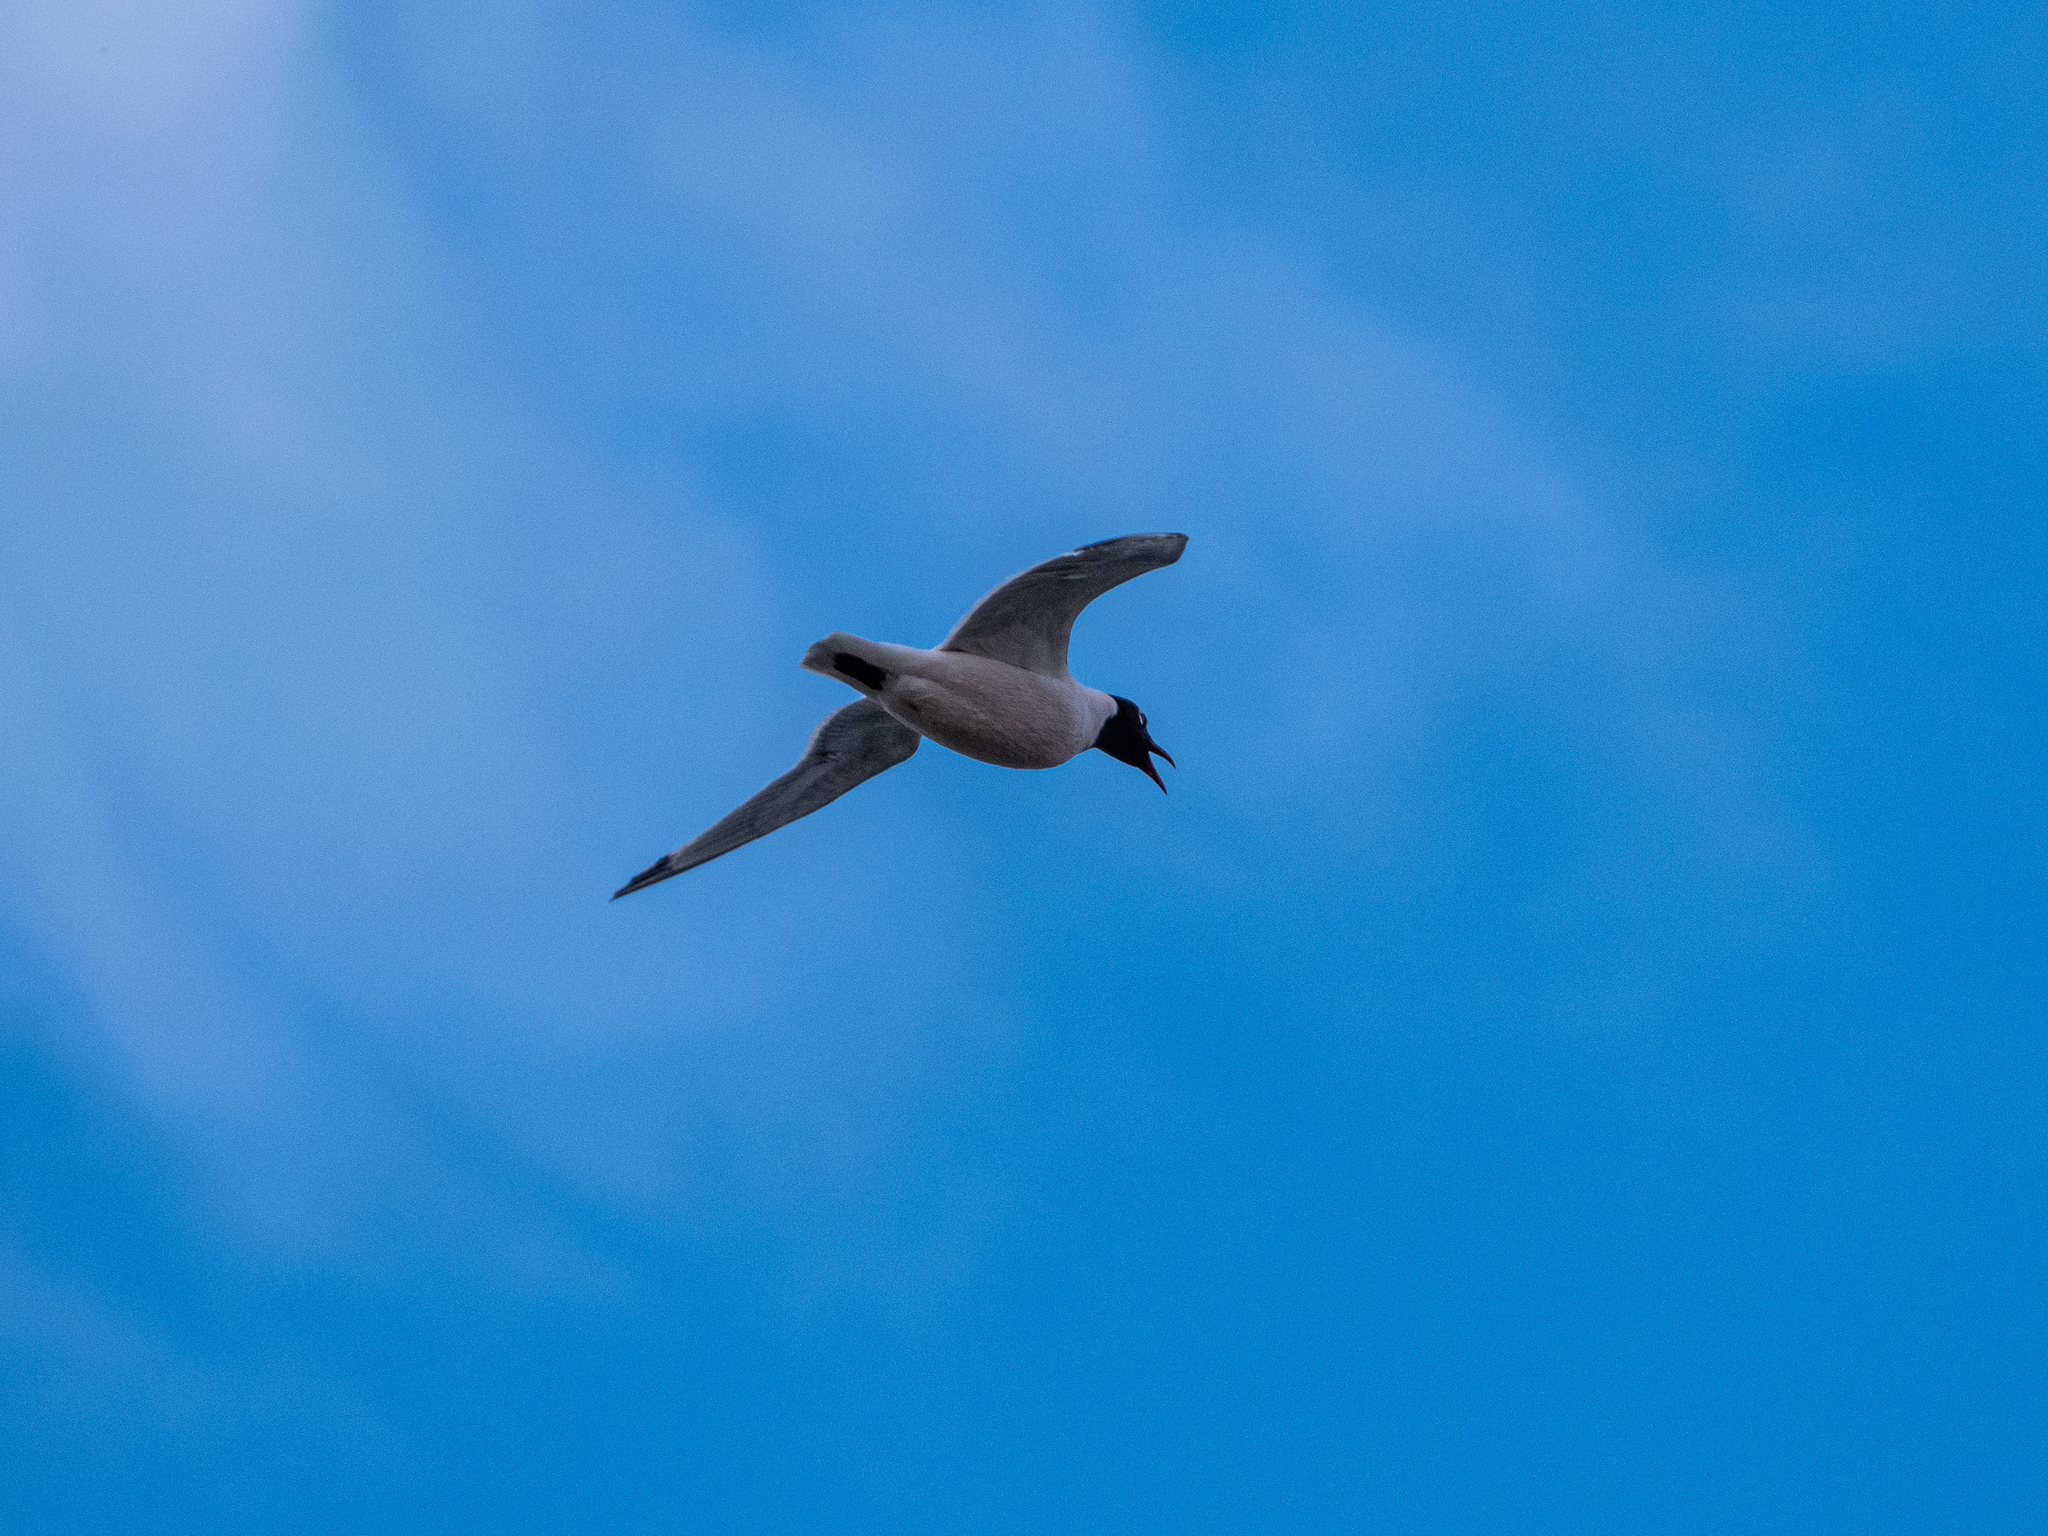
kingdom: Animalia
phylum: Chordata
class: Aves
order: Charadriiformes
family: Laridae
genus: Leucophaeus
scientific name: Leucophaeus pipixcan
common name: Franklin's gull
